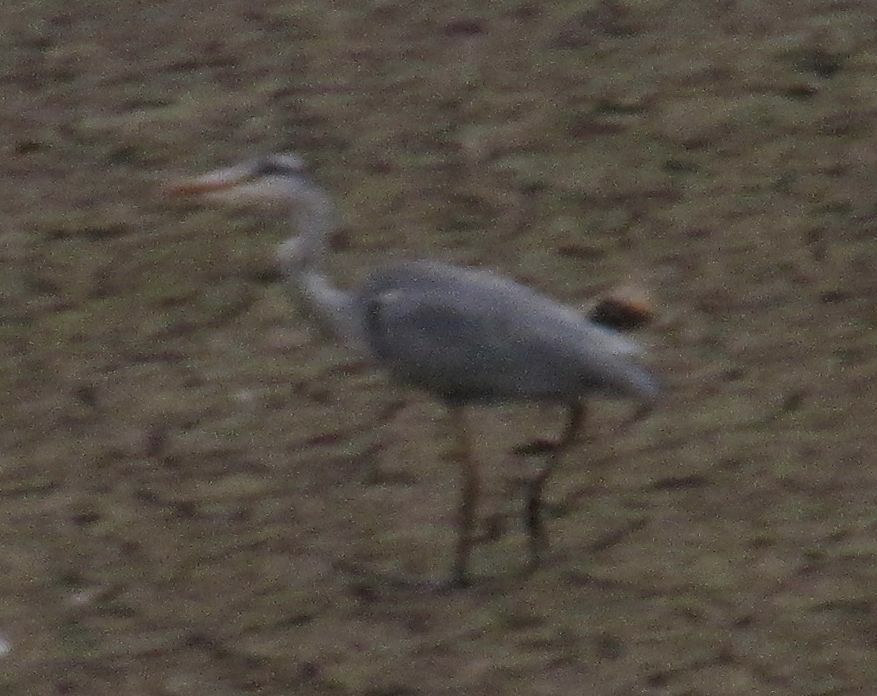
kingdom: Animalia
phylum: Chordata
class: Aves
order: Pelecaniformes
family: Ardeidae
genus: Ardea
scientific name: Ardea cinerea
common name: Grey heron
